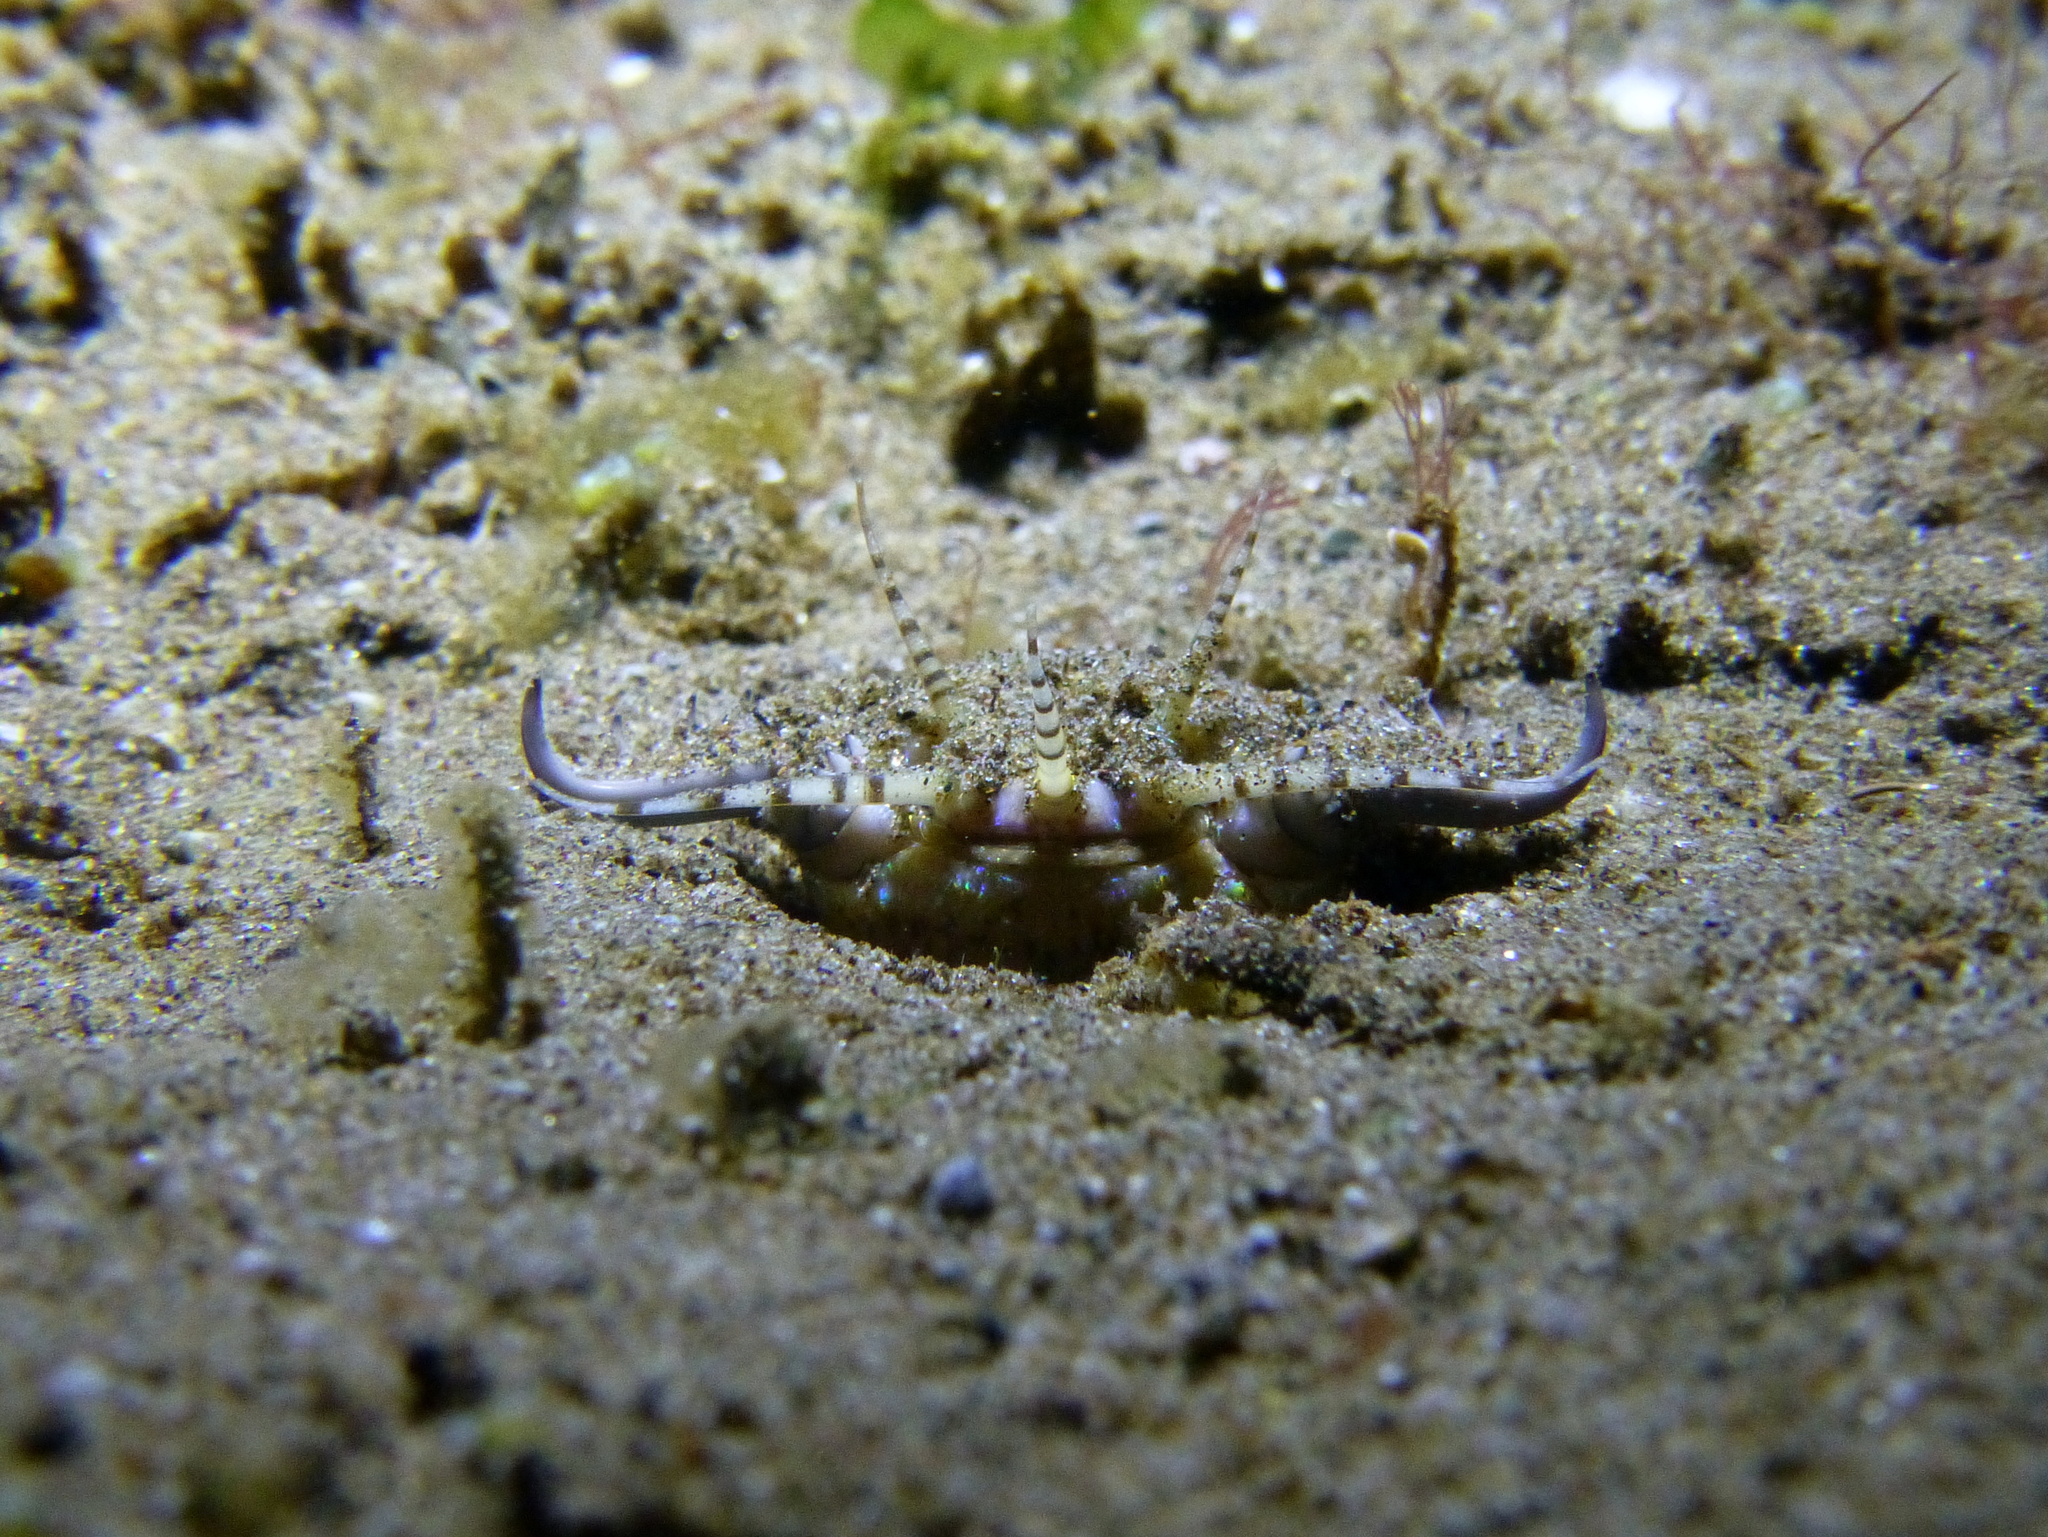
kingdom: Animalia
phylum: Annelida
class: Polychaeta
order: Eunicida
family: Eunicidae
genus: Eunice
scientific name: Eunice aphroditois
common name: Wonder-worm
